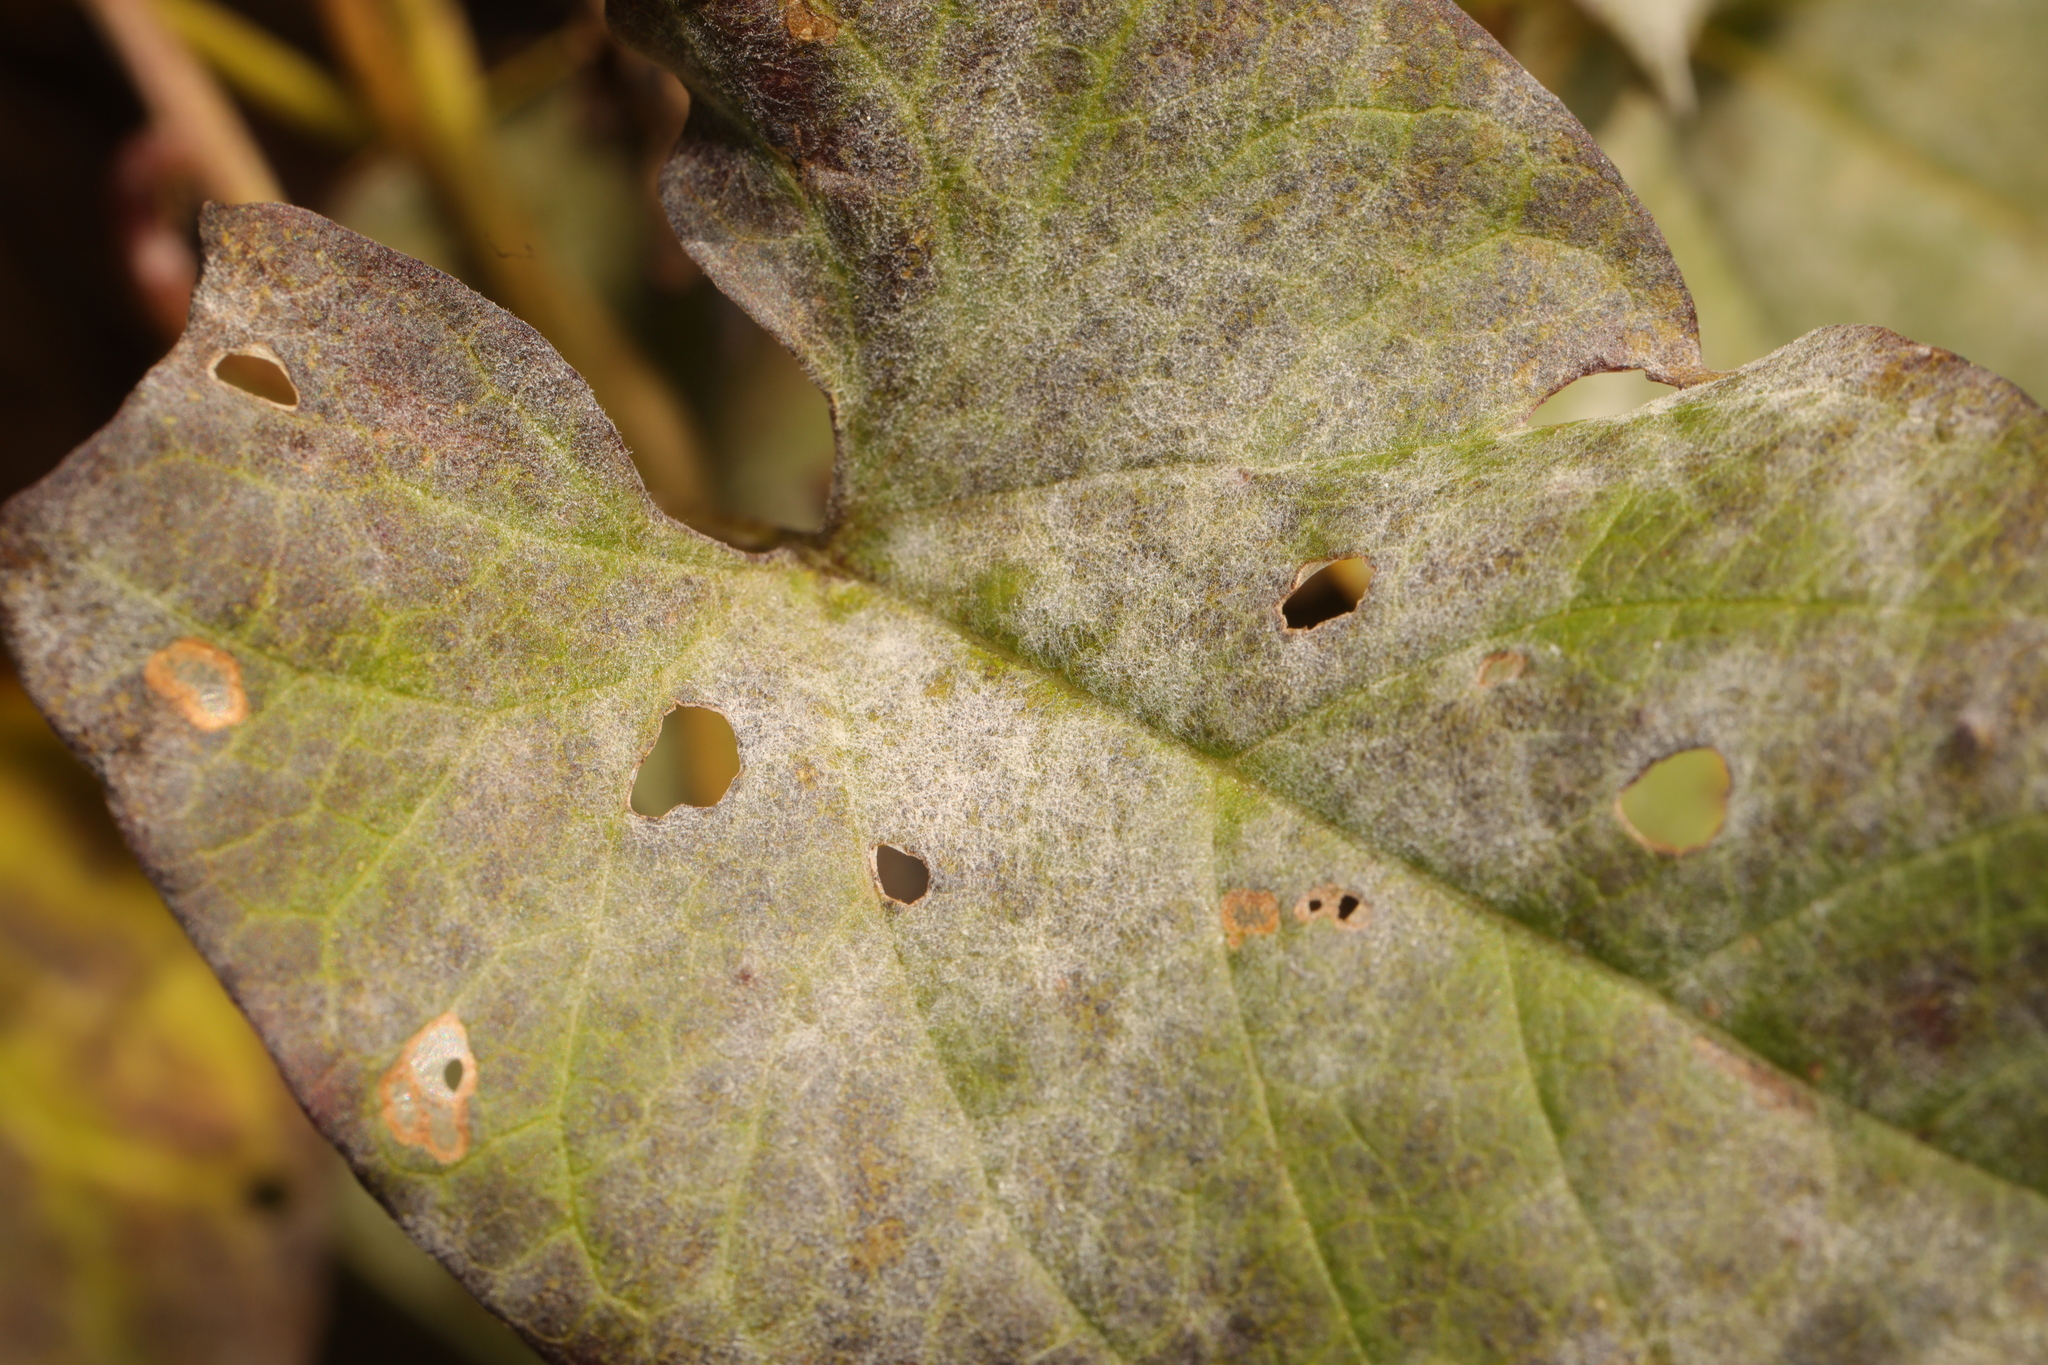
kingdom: Fungi
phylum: Ascomycota
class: Leotiomycetes
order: Helotiales
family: Erysiphaceae
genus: Erysiphe
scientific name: Erysiphe convolvuli
